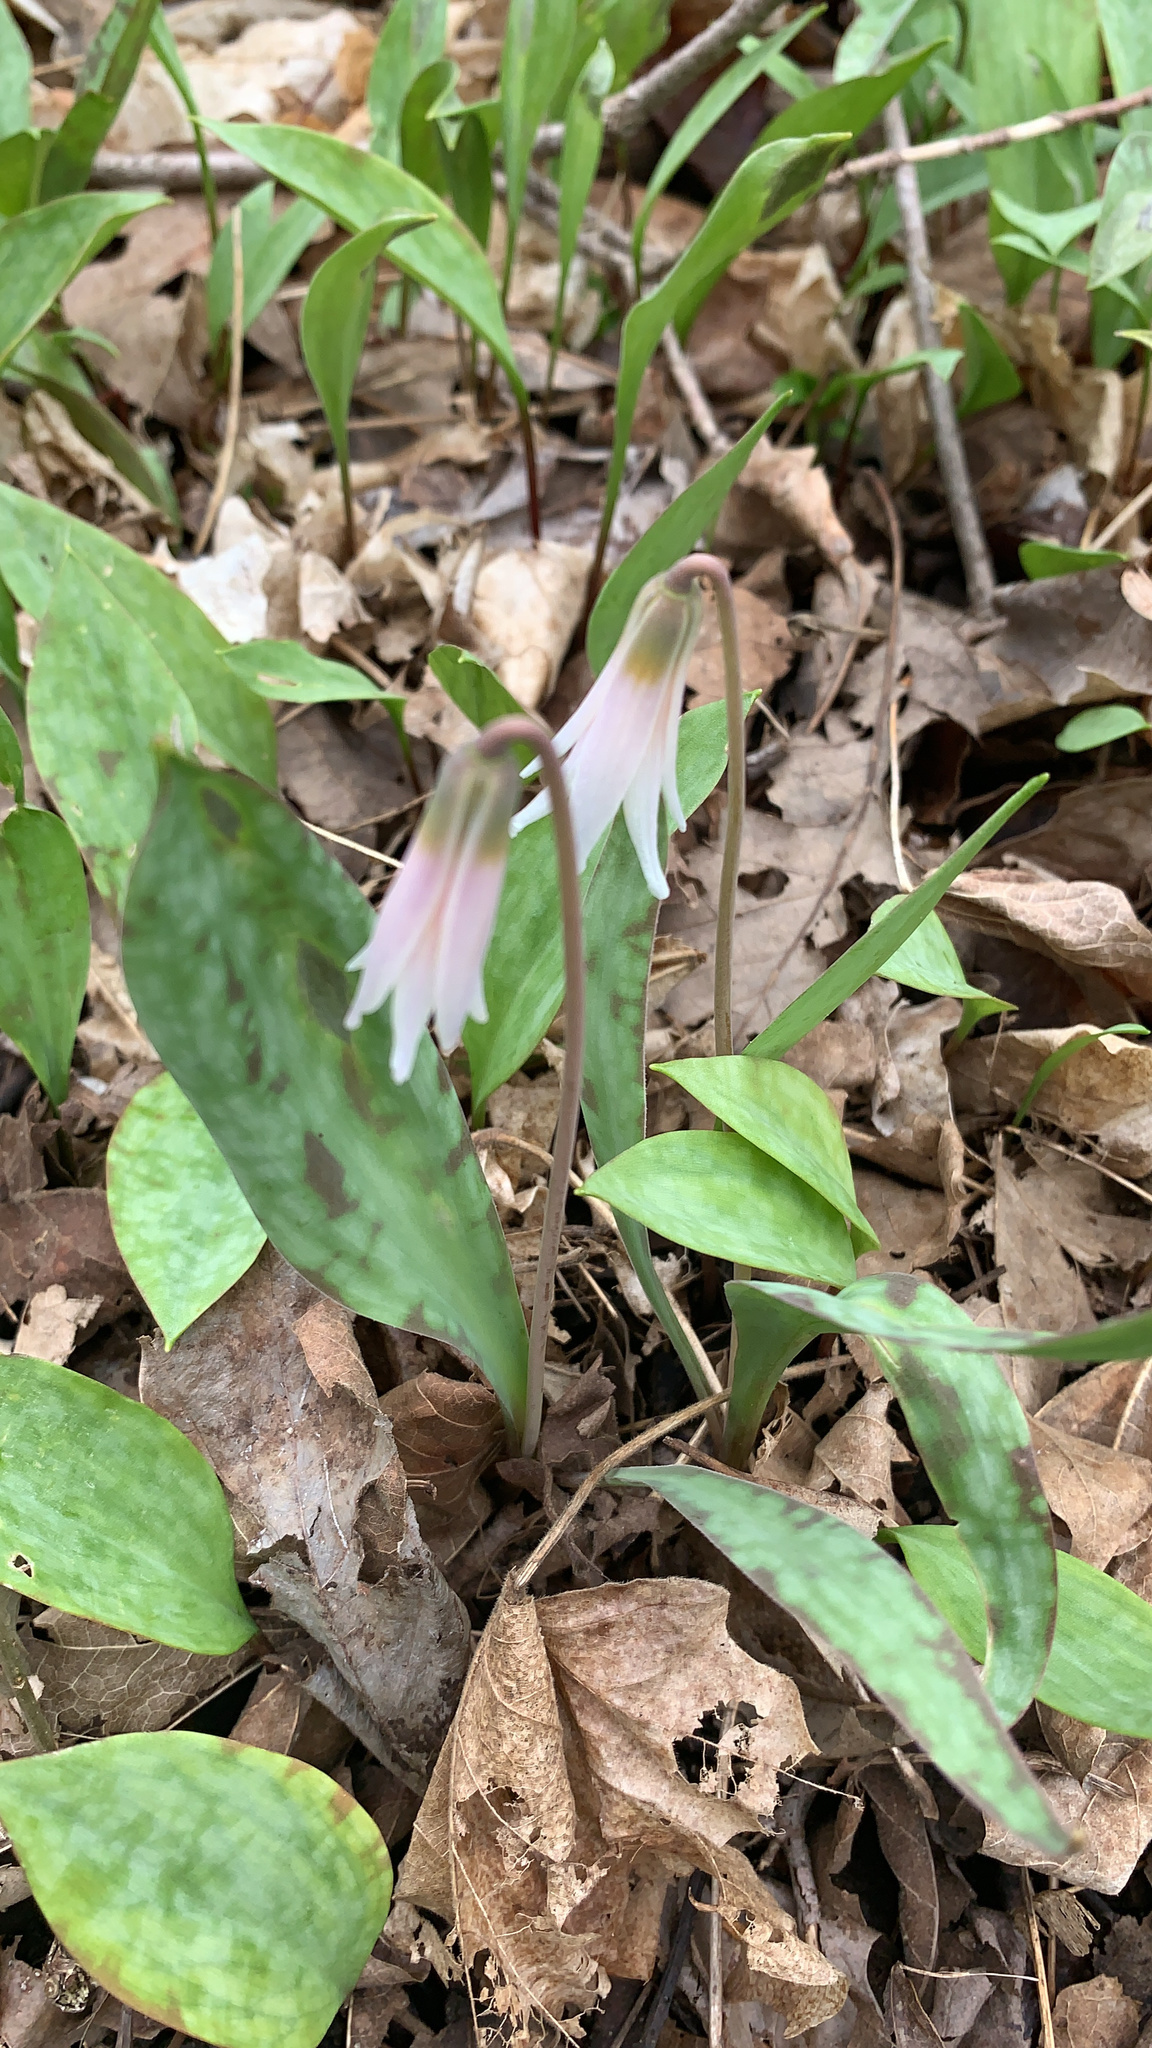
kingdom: Plantae
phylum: Tracheophyta
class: Liliopsida
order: Liliales
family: Liliaceae
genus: Erythronium
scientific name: Erythronium albidum
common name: White trout-lily
